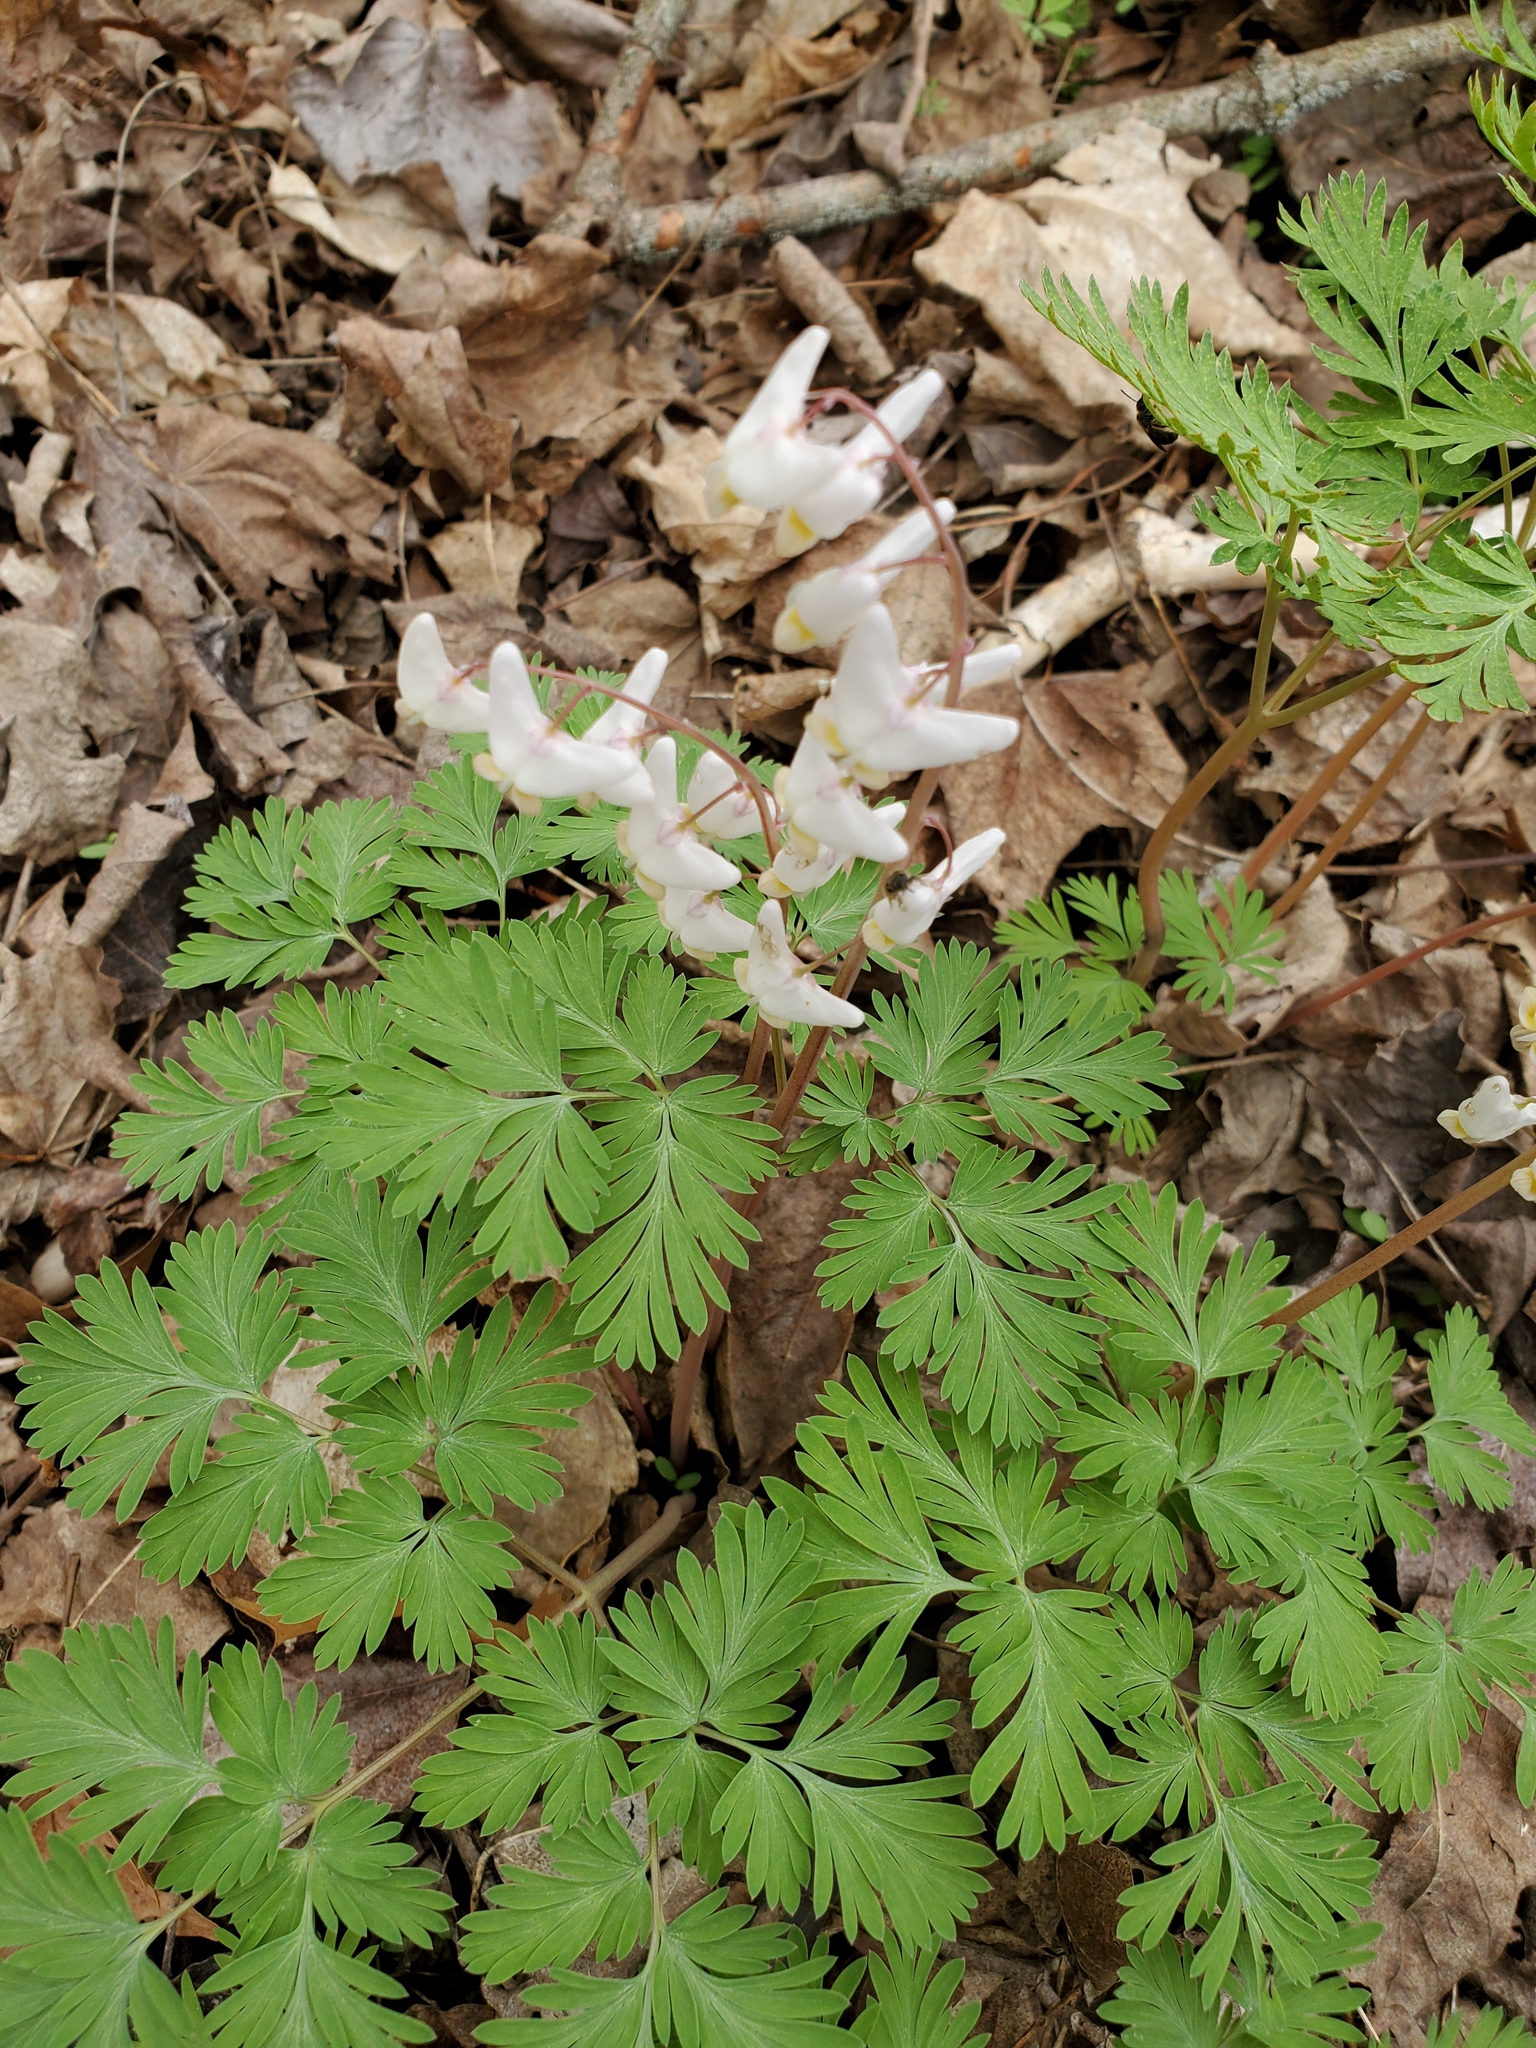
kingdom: Plantae
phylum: Tracheophyta
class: Magnoliopsida
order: Ranunculales
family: Papaveraceae
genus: Dicentra
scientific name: Dicentra cucullaria
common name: Dutchman's breeches
